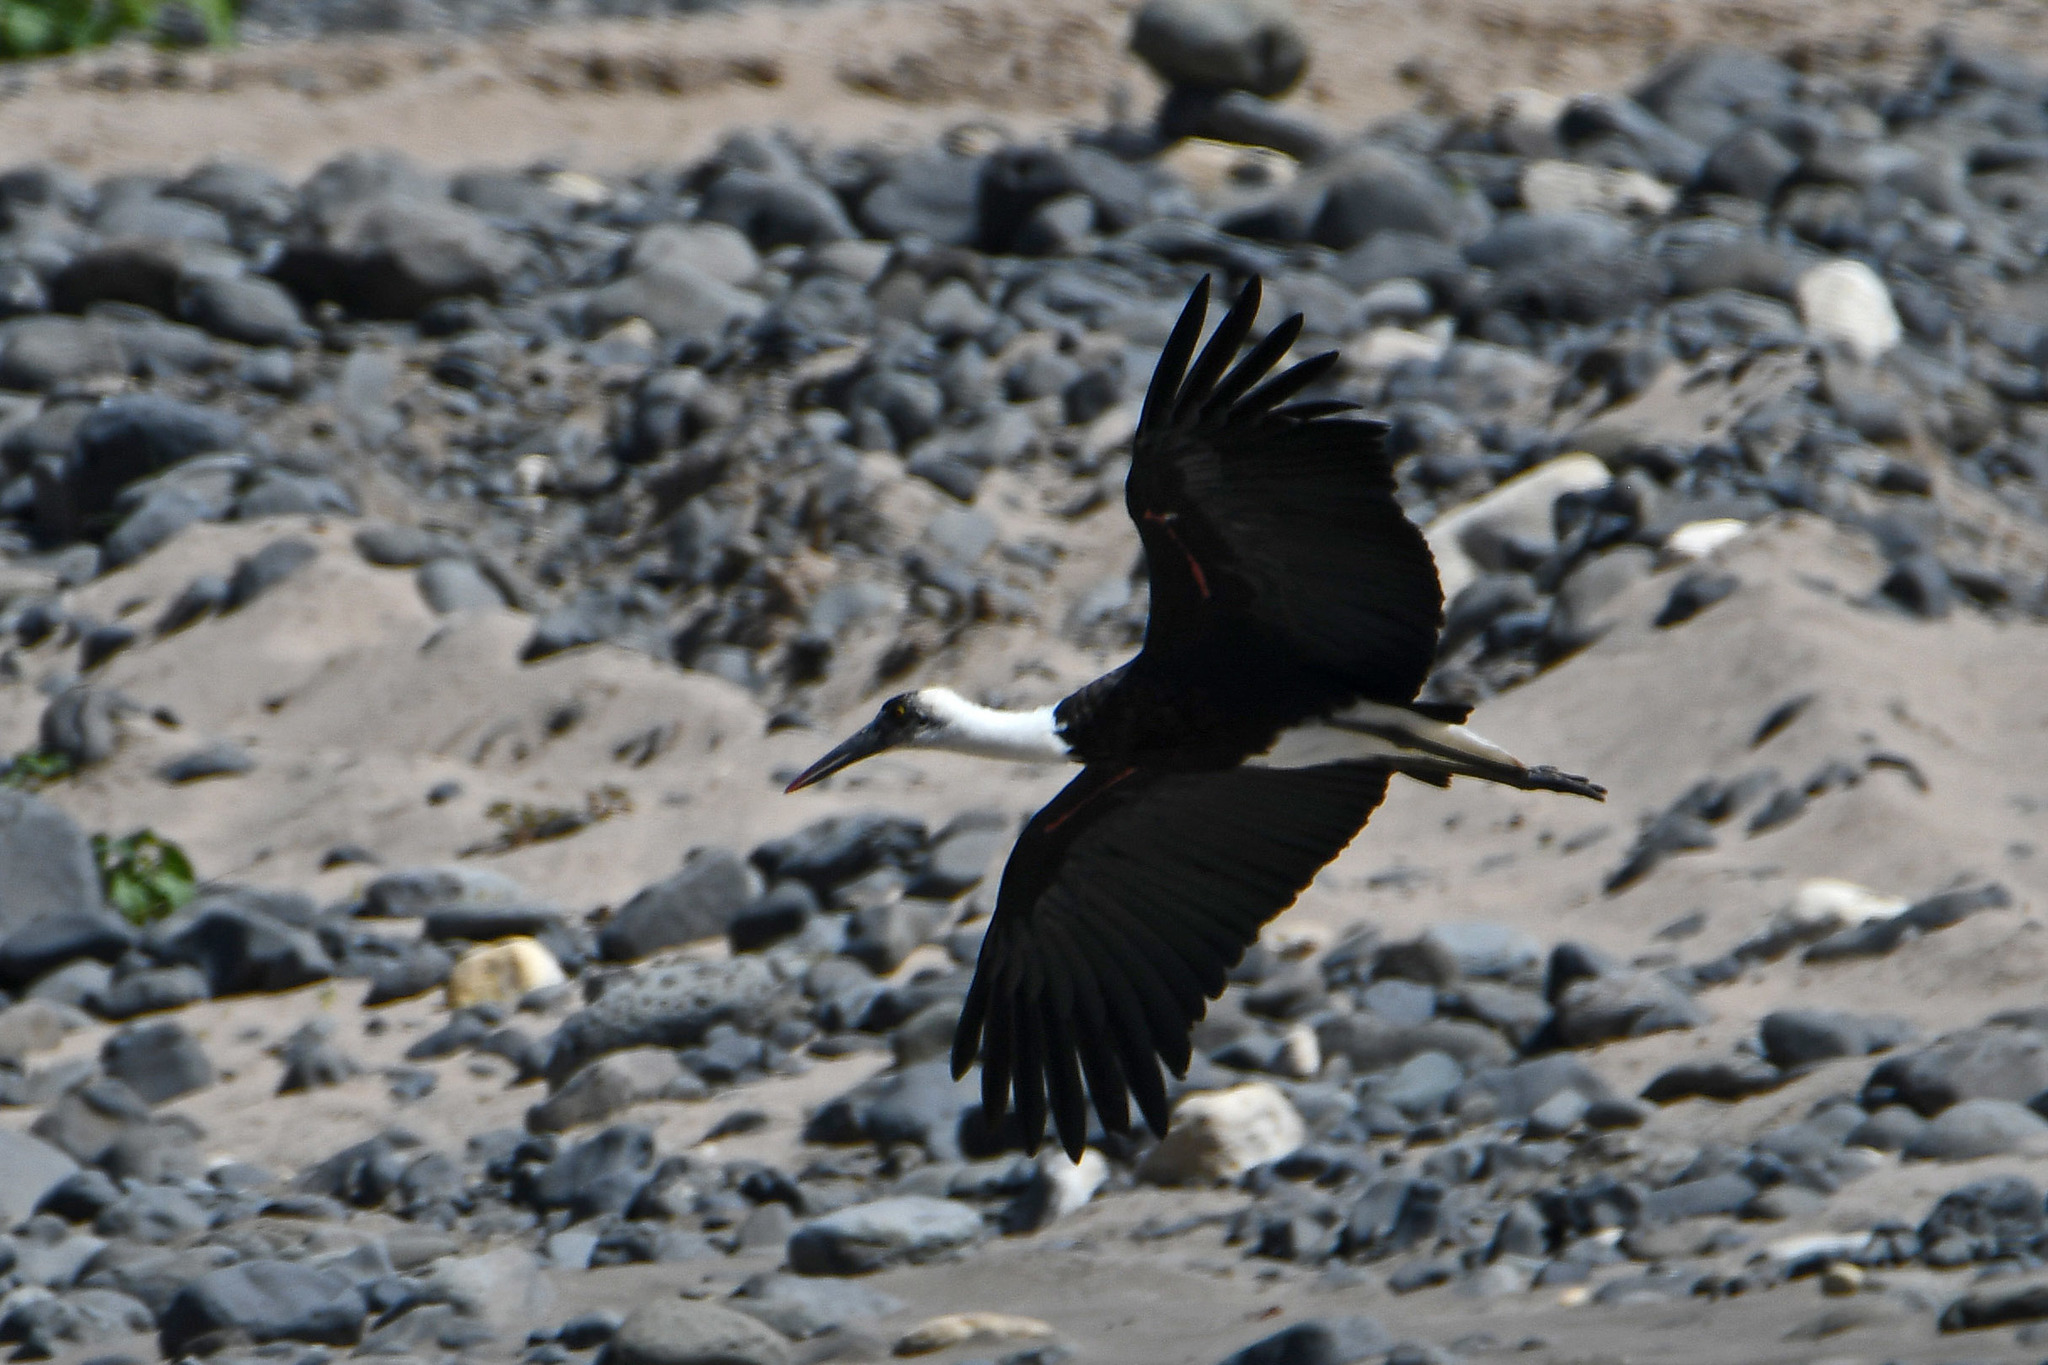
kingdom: Animalia
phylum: Chordata
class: Aves
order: Ciconiiformes
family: Ciconiidae
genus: Ciconia
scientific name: Ciconia microscelis
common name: African woollyneck
